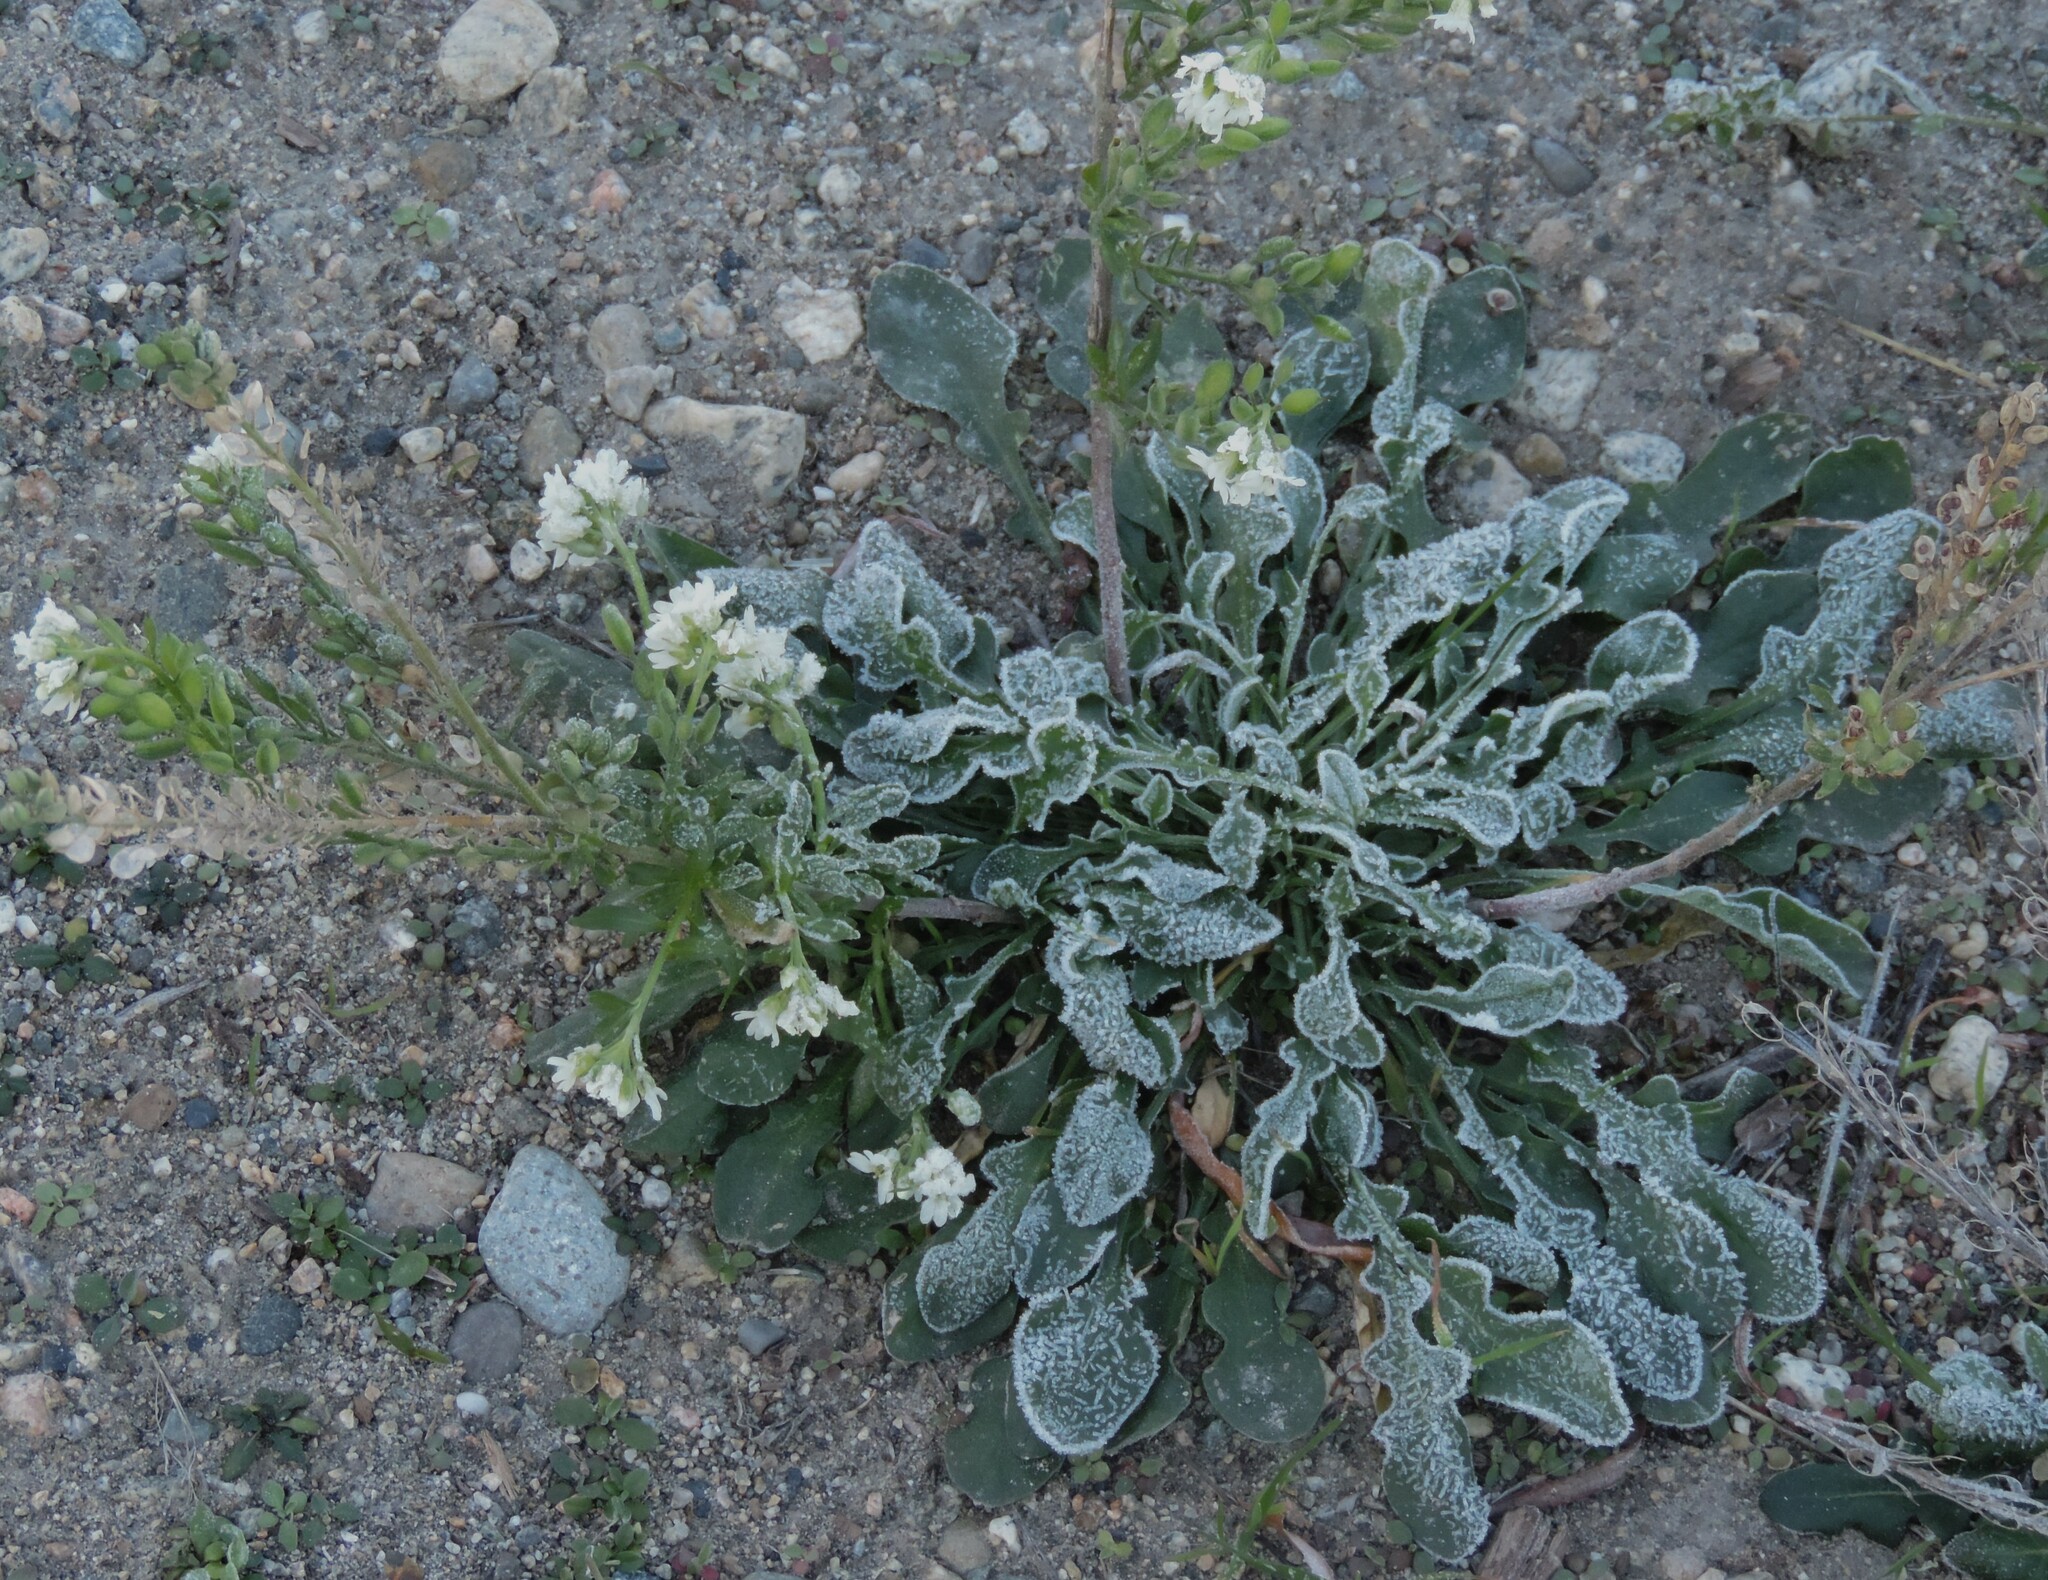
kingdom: Plantae
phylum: Tracheophyta
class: Magnoliopsida
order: Brassicales
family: Brassicaceae
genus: Berteroa
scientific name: Berteroa incana
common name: Hoary alison
